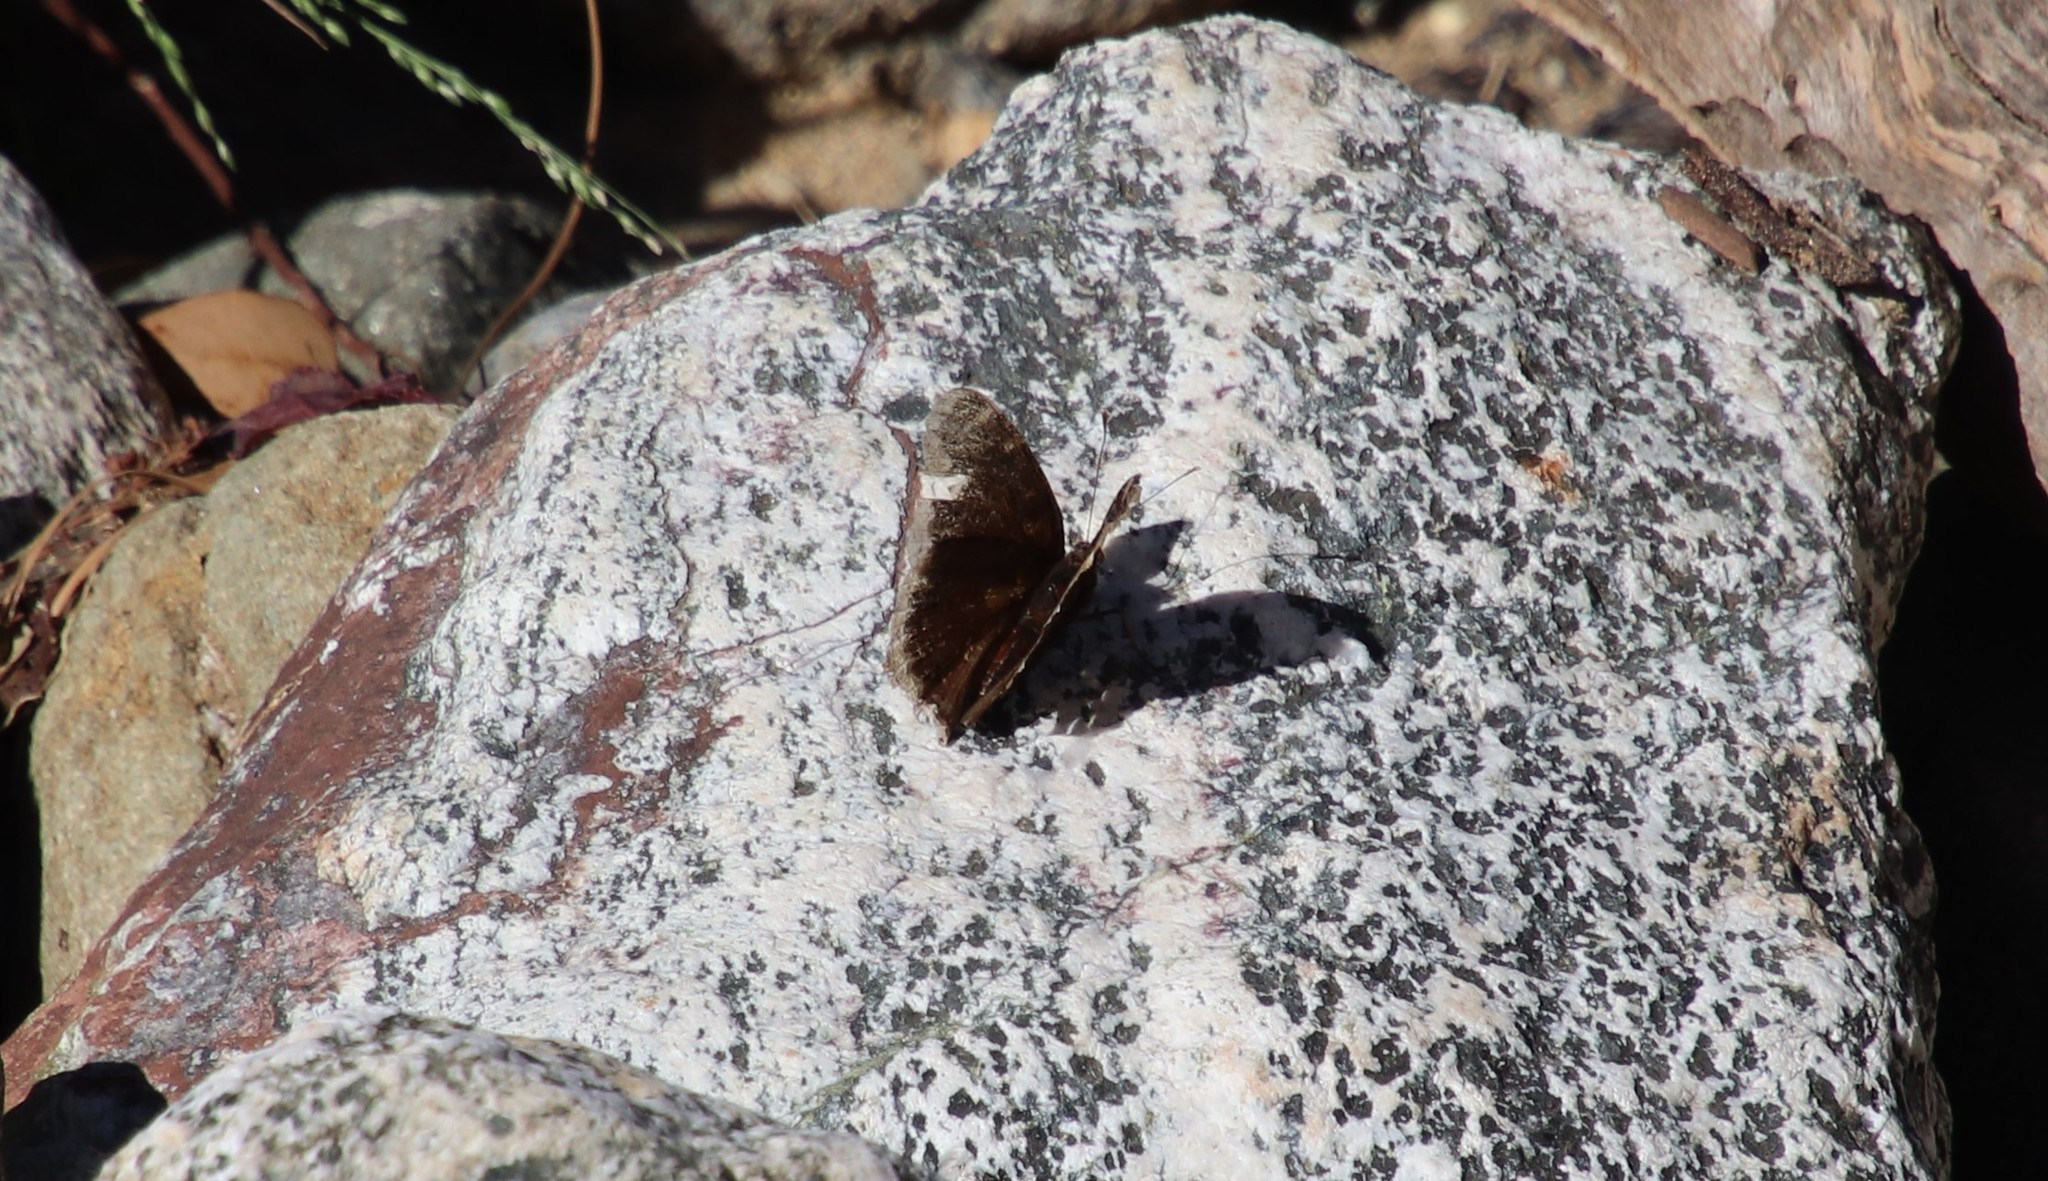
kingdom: Animalia
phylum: Arthropoda
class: Insecta
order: Lepidoptera
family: Nymphalidae
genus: Nymphalis
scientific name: Nymphalis antiopa
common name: Camberwell beauty
